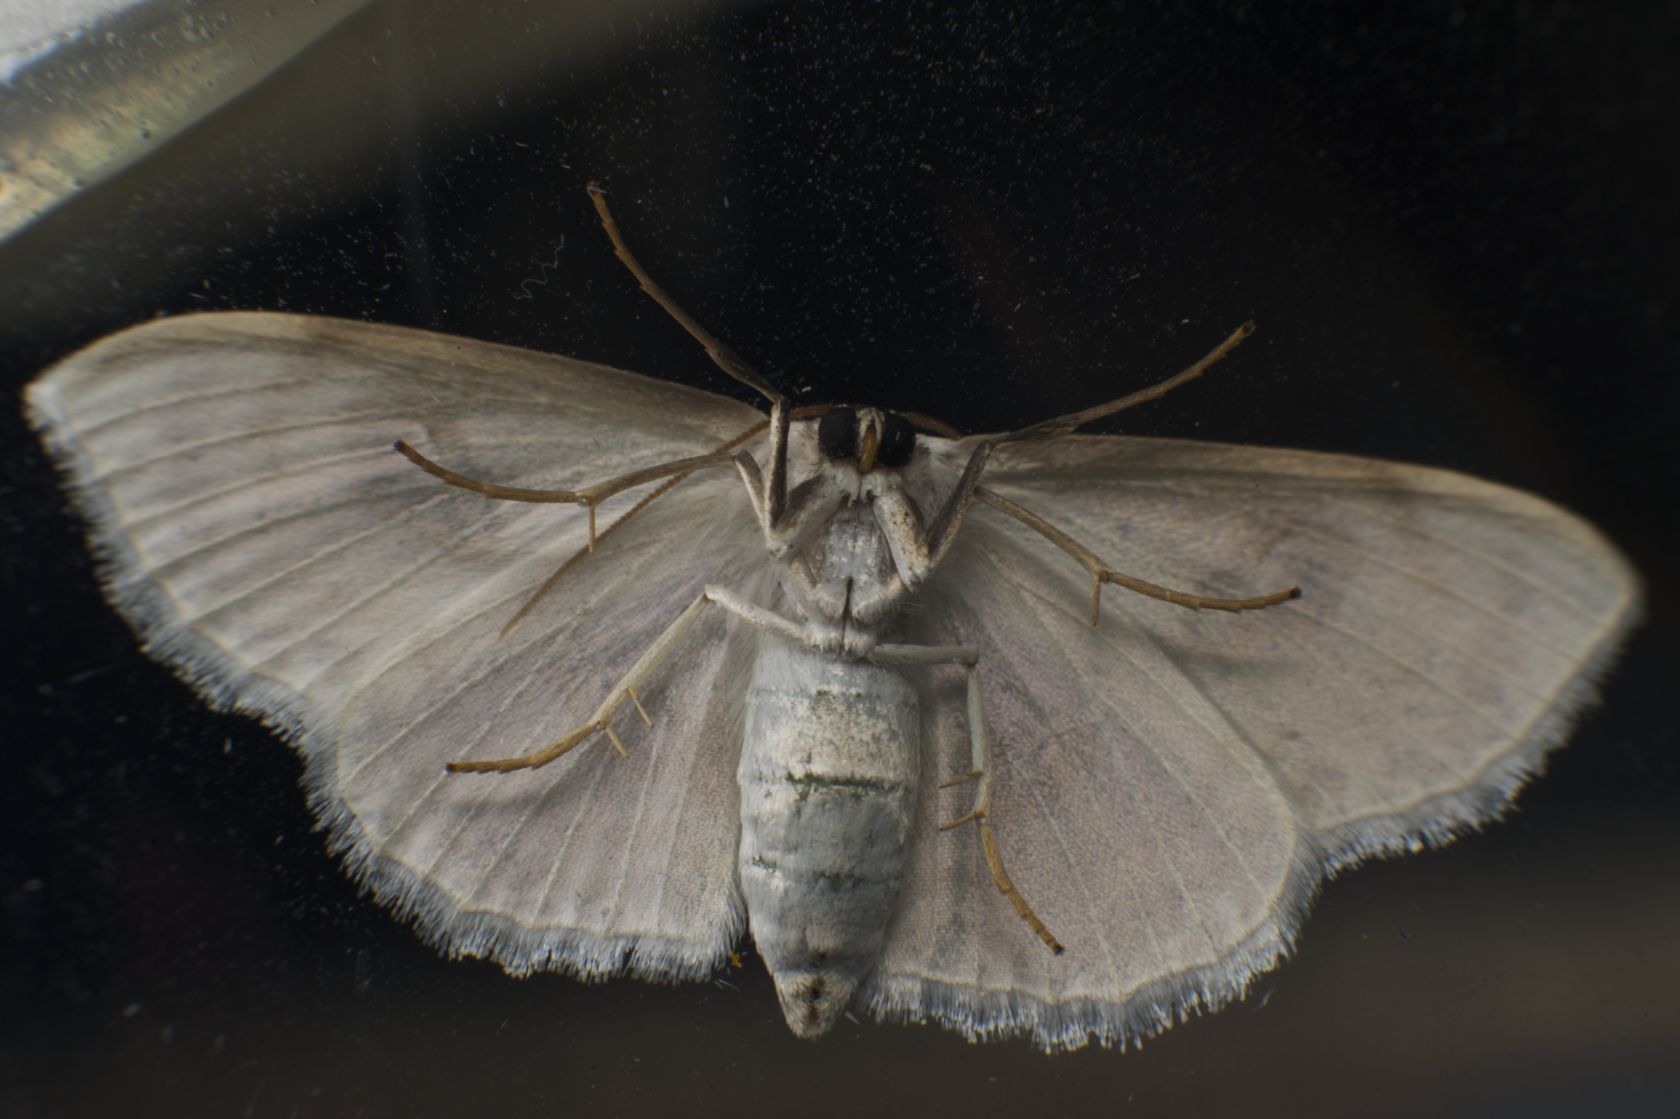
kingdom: Animalia
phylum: Arthropoda
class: Insecta
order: Lepidoptera
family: Geometridae
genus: Problepsis
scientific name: Problepsis vulgaris
